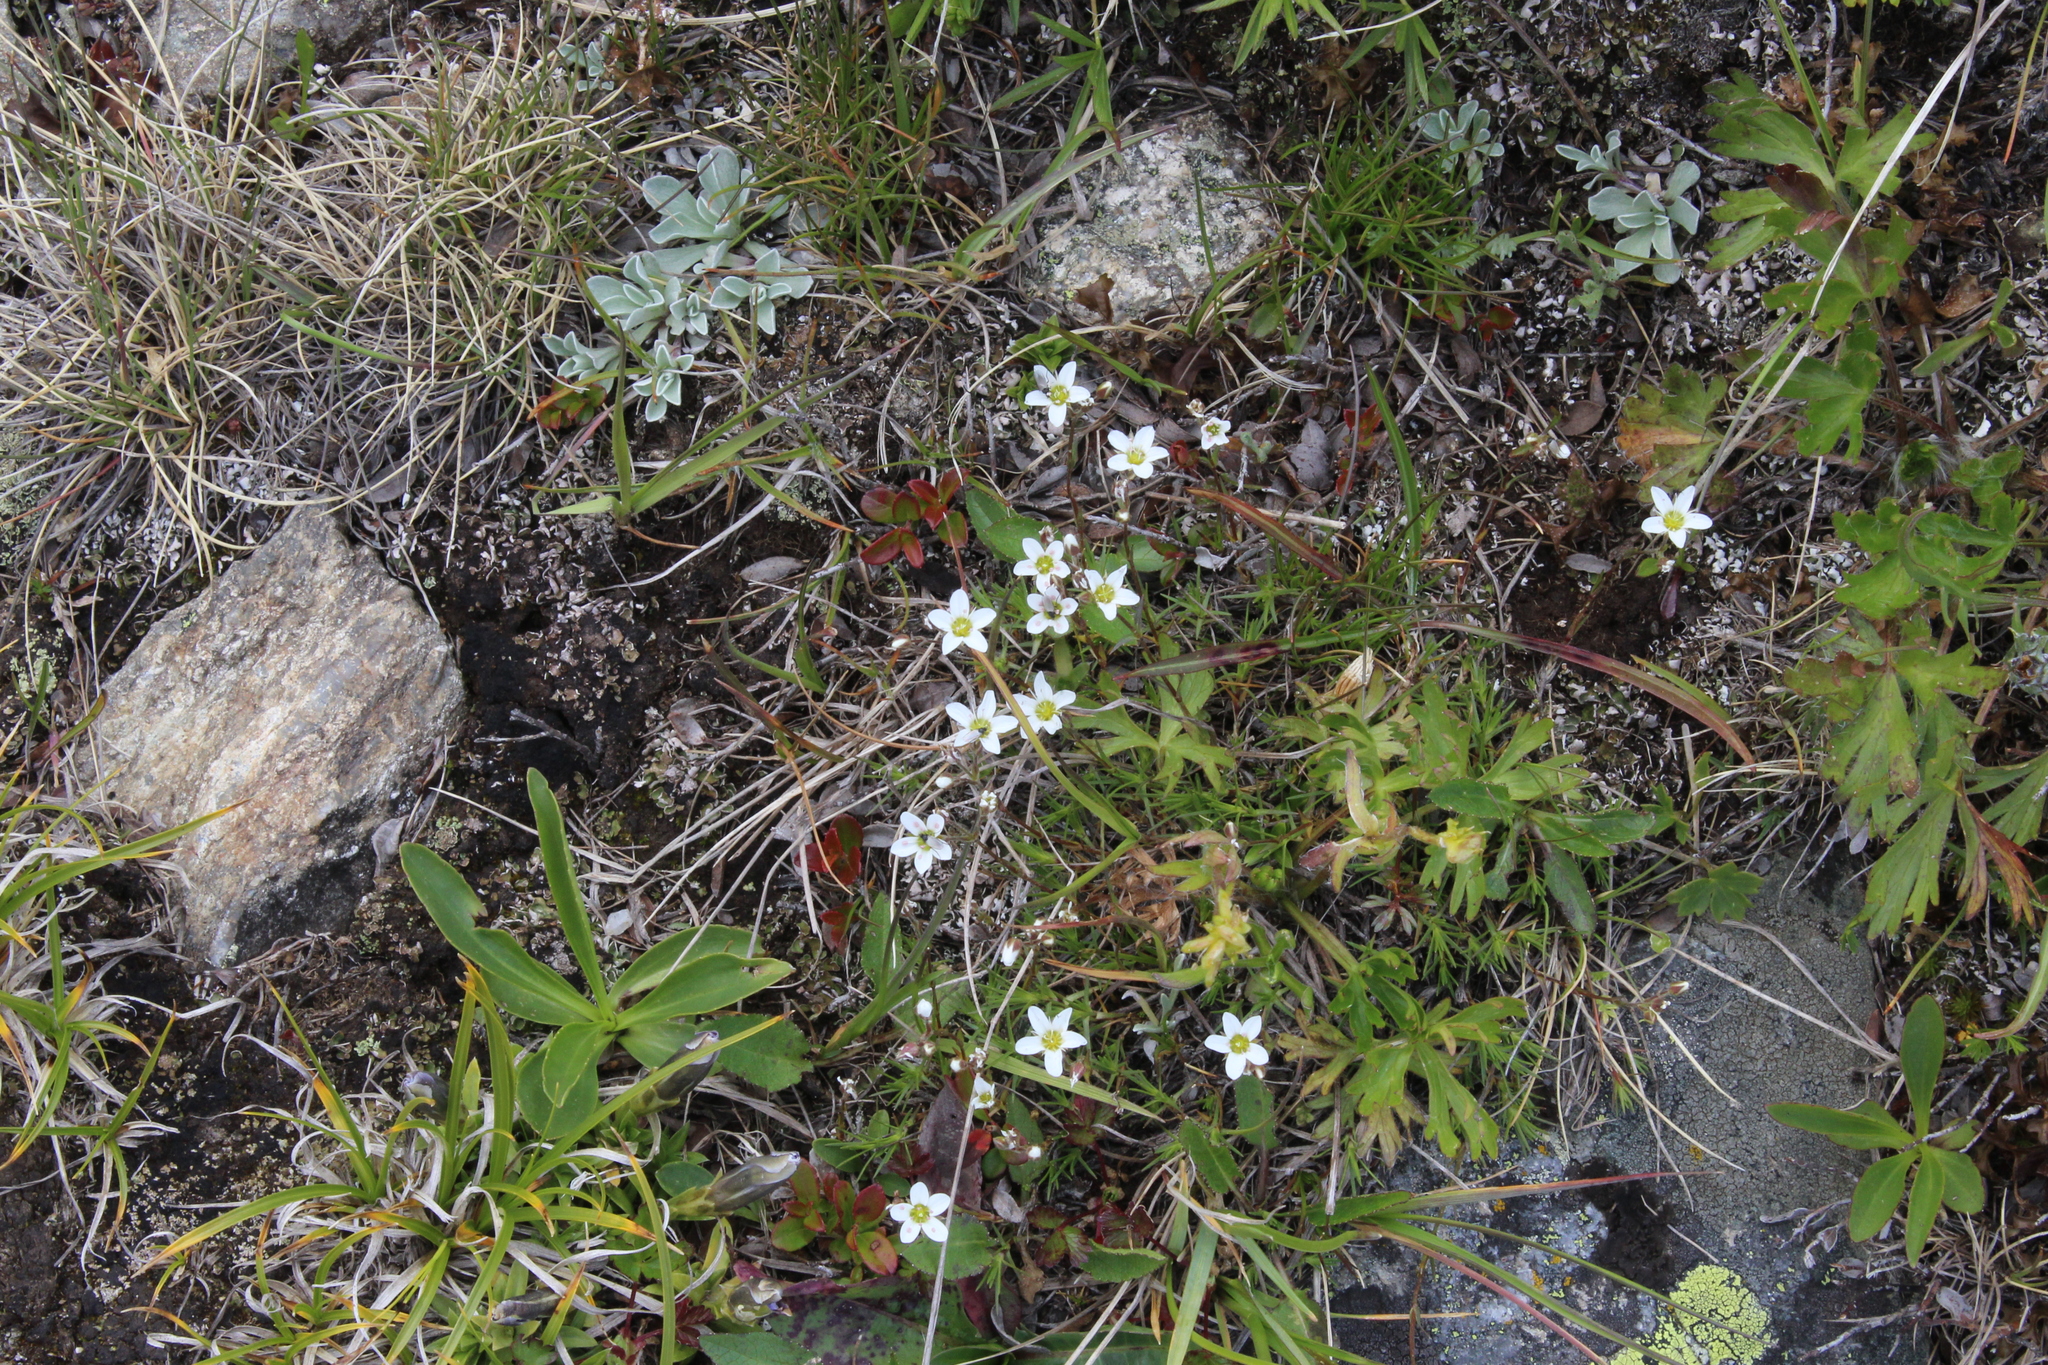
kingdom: Plantae
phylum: Tracheophyta
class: Magnoliopsida
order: Caryophyllales
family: Caryophyllaceae
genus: Minuartia
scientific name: Minuartia hirsuta
